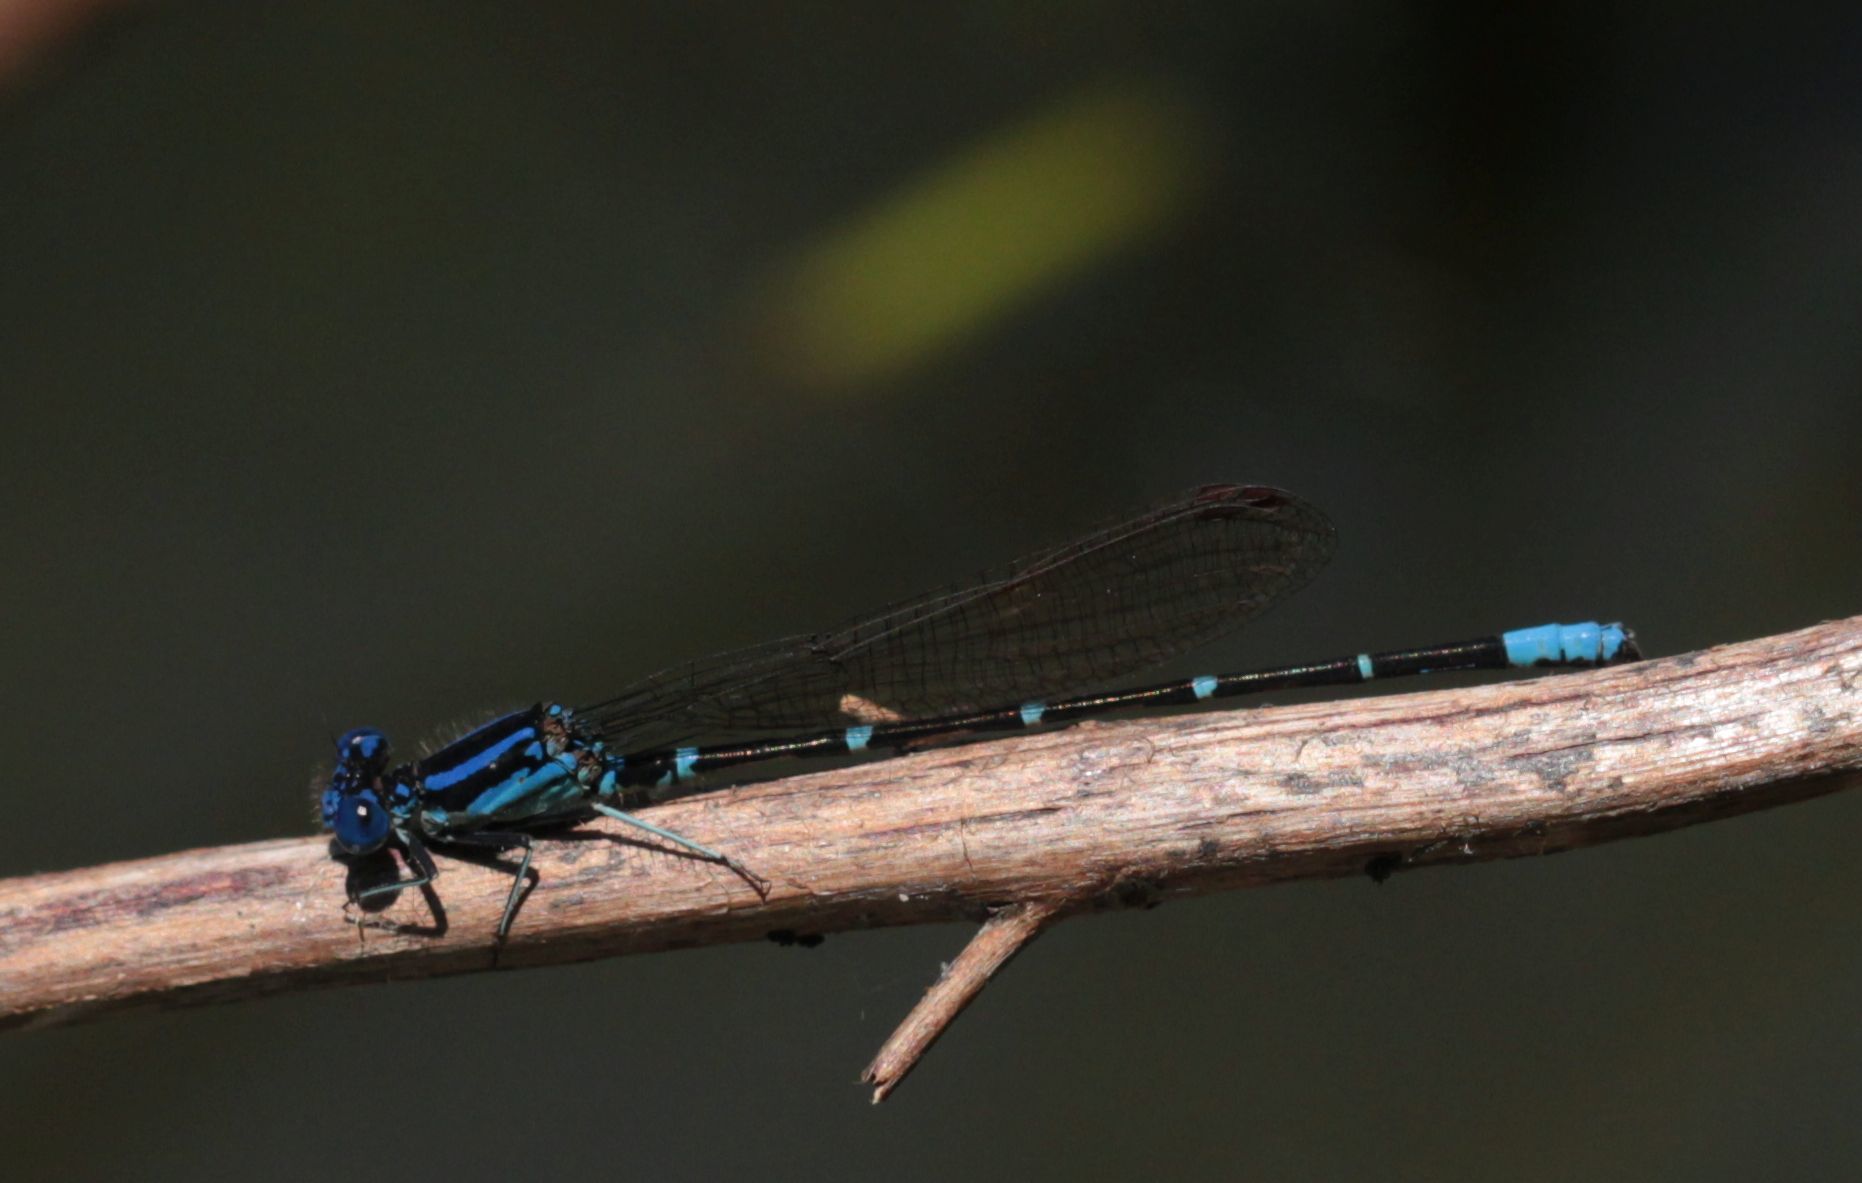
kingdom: Animalia
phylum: Arthropoda
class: Insecta
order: Odonata
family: Coenagrionidae
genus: Argia
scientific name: Argia sedula
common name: Blue-ringed dancer
